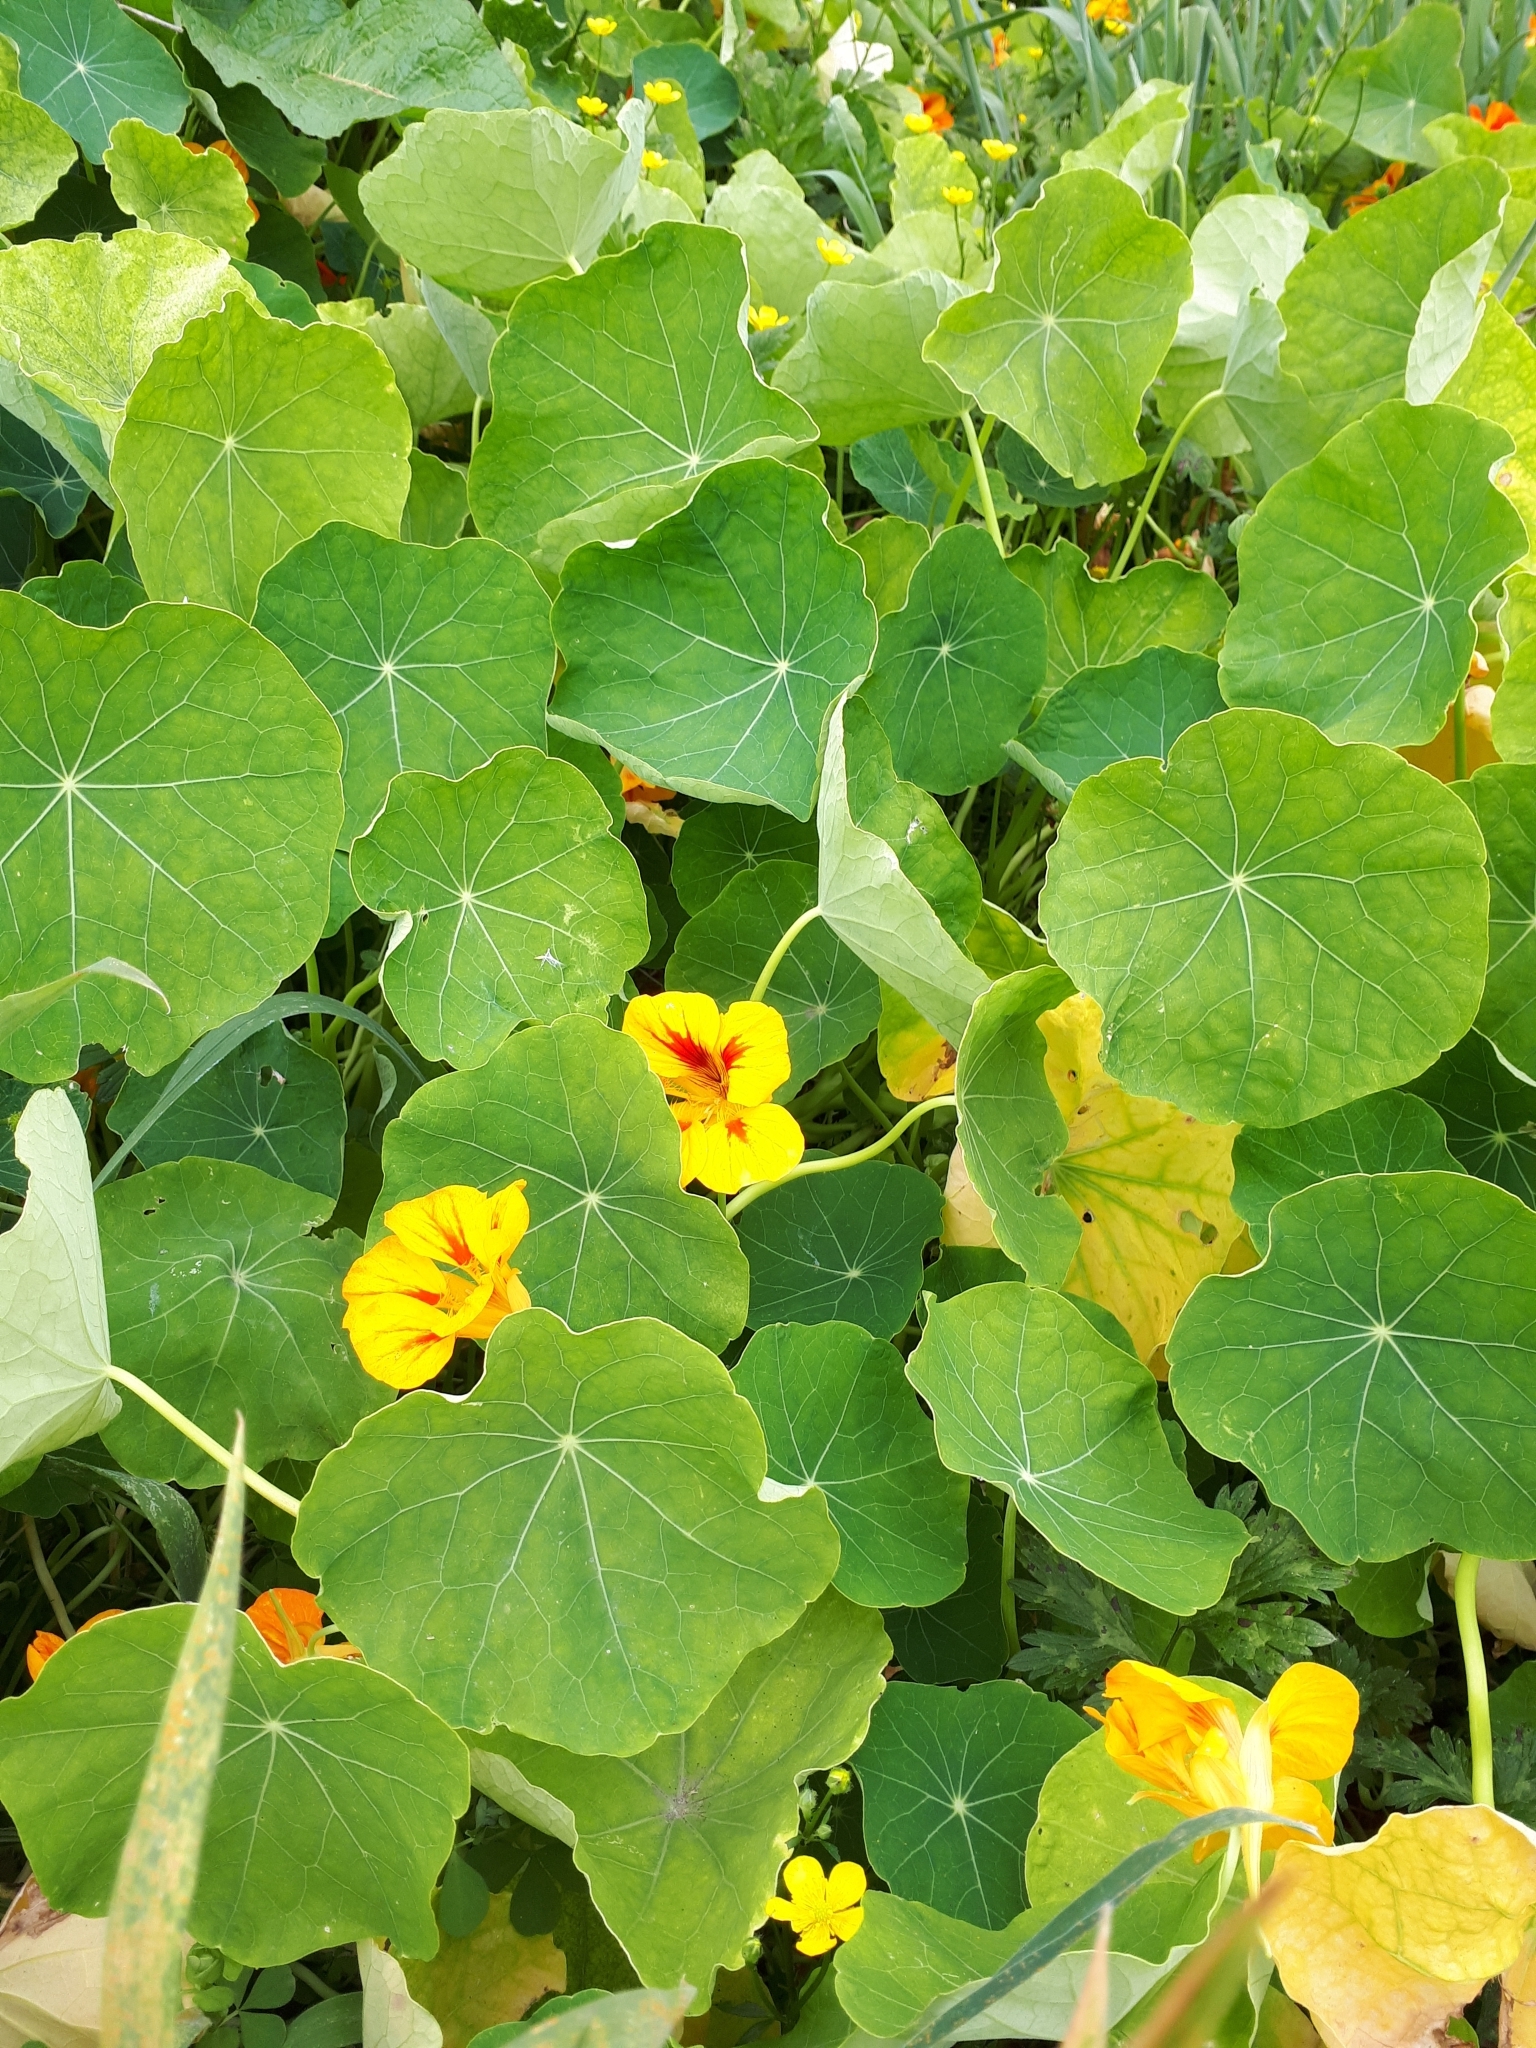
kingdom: Plantae
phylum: Tracheophyta
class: Magnoliopsida
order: Brassicales
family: Tropaeolaceae
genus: Tropaeolum
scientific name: Tropaeolum majus
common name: Nasturtium
